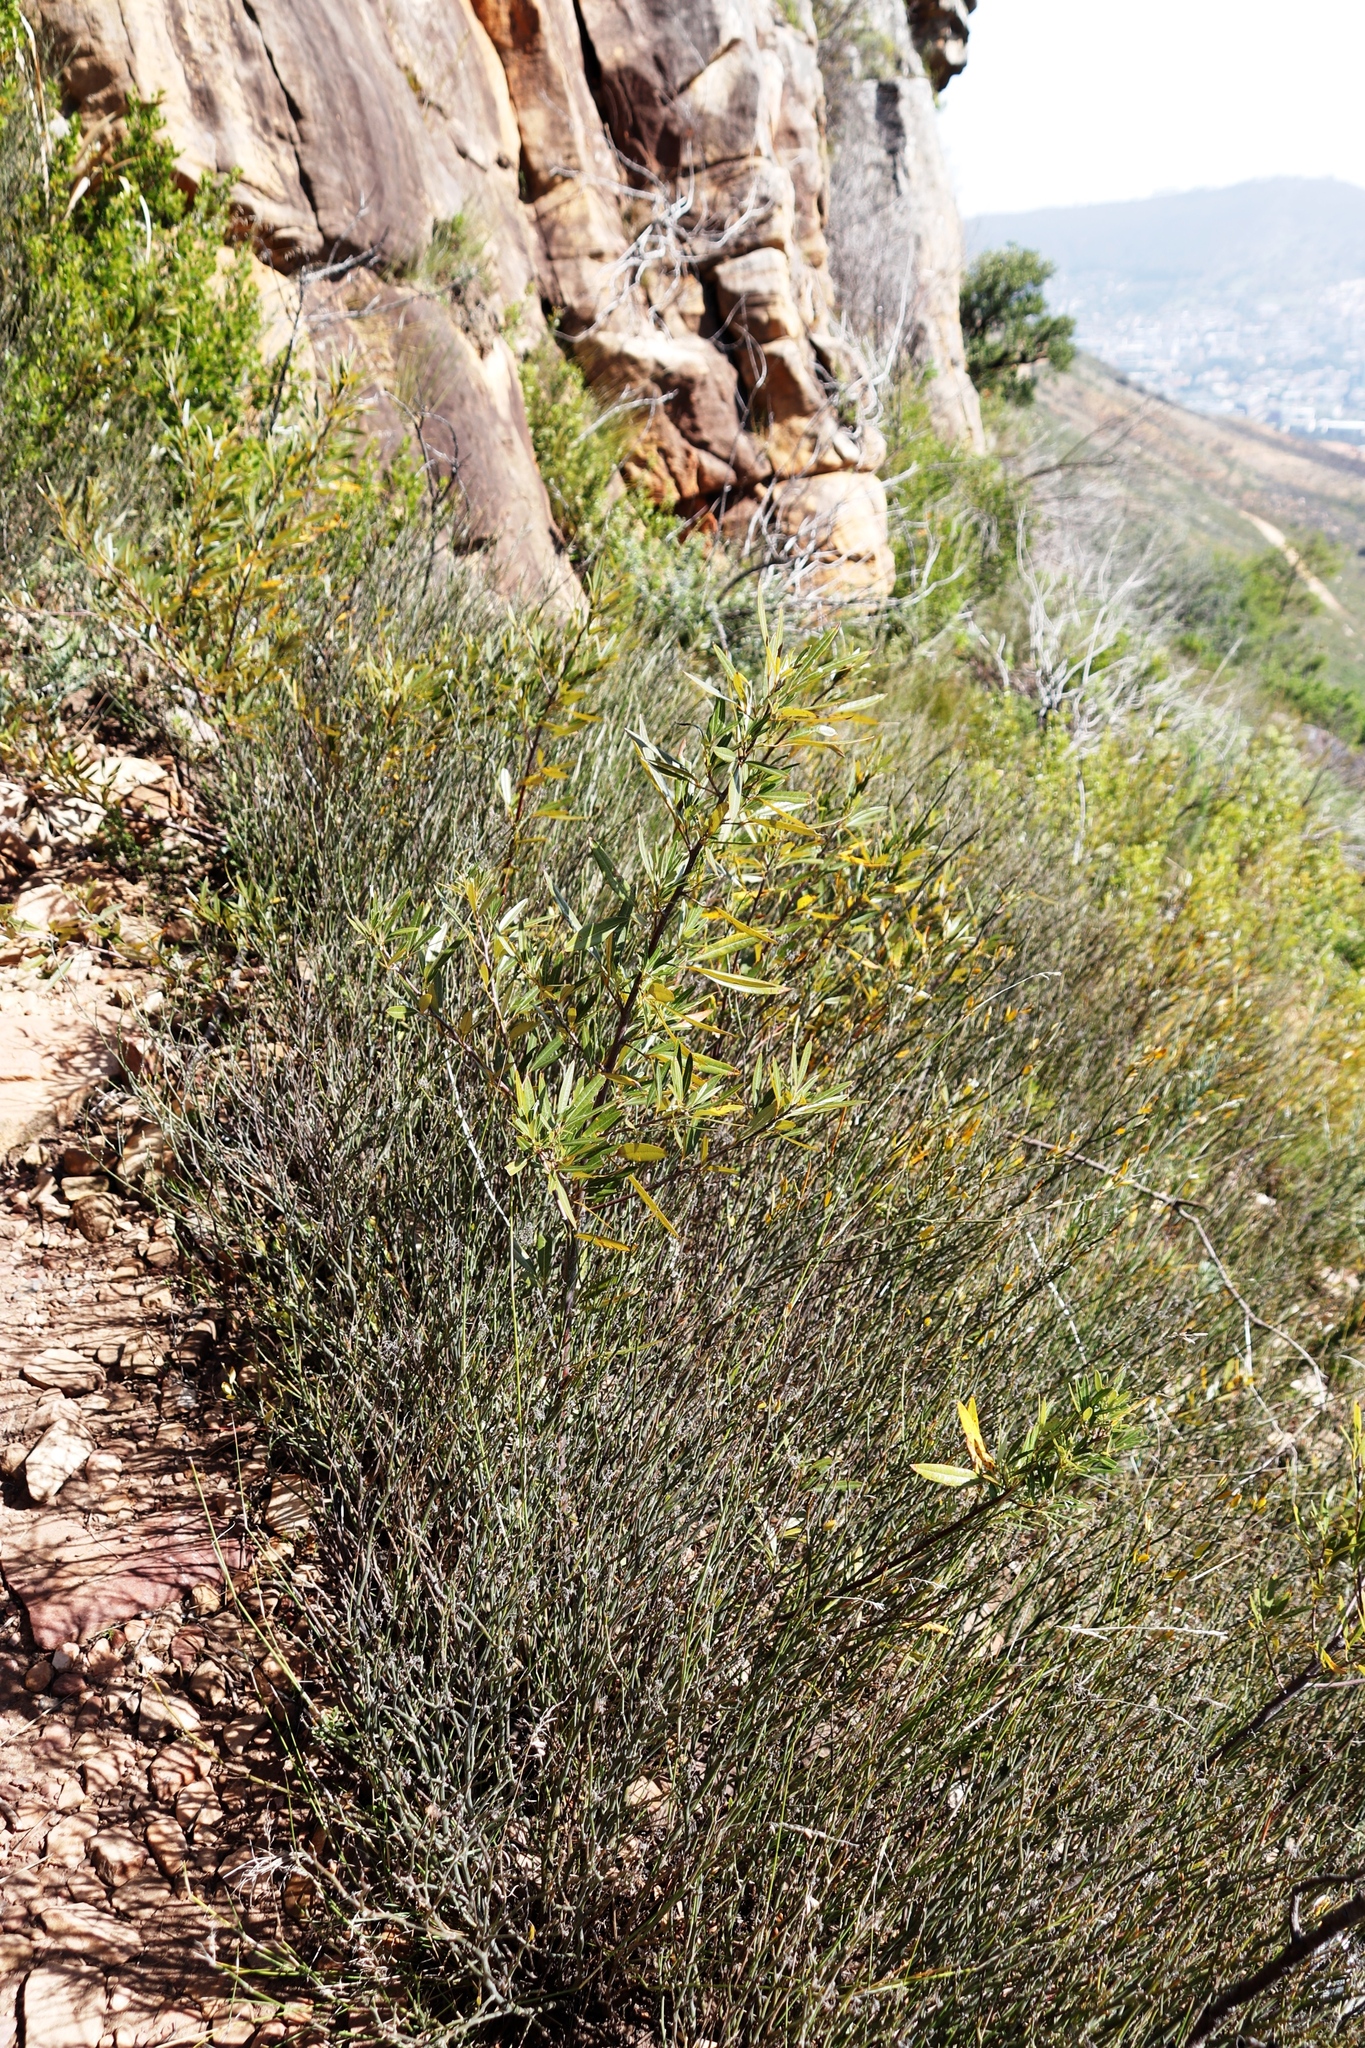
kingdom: Plantae
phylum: Tracheophyta
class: Magnoliopsida
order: Sapindales
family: Anacardiaceae
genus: Searsia
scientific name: Searsia angustifolia
